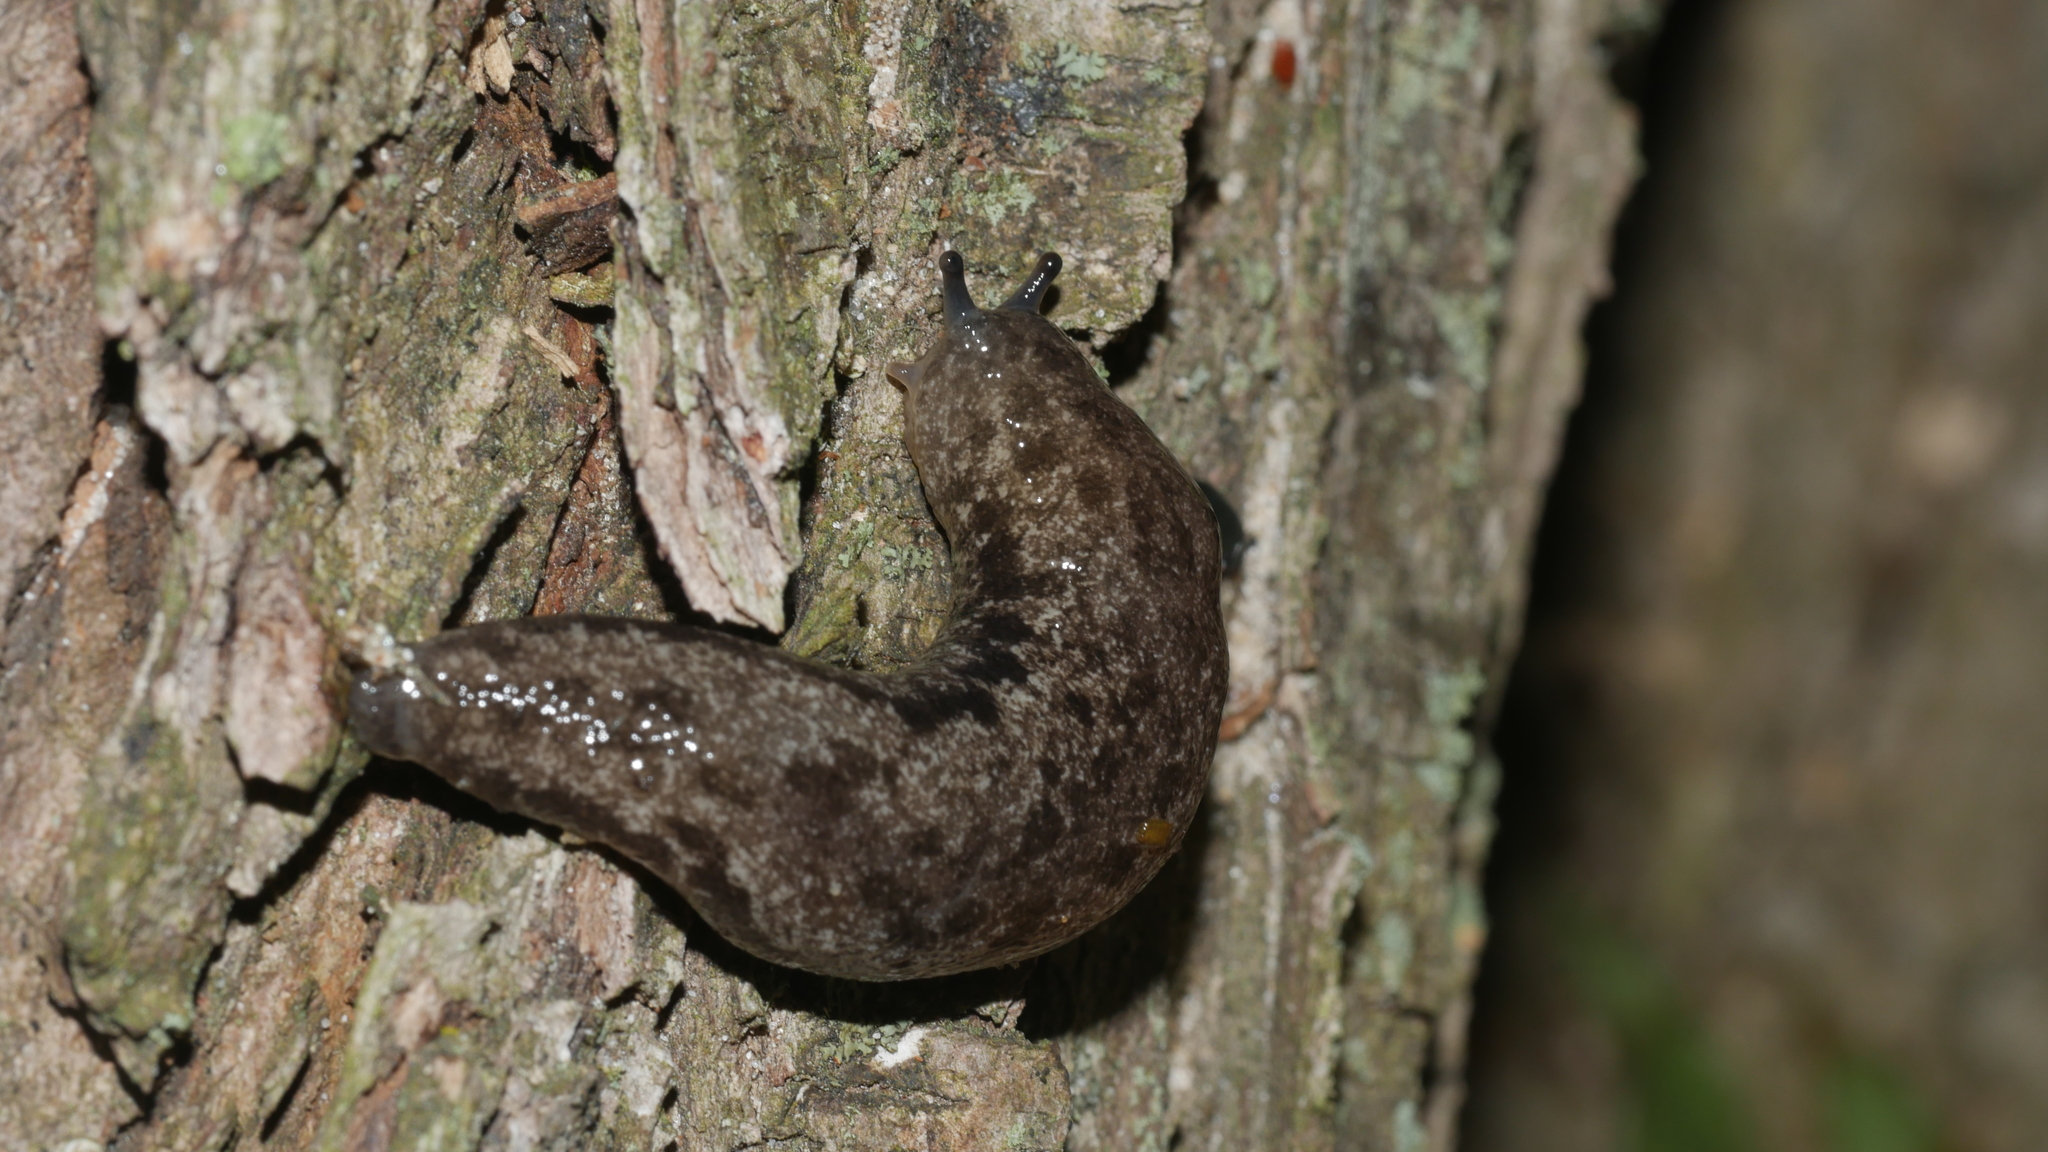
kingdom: Animalia
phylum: Mollusca
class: Gastropoda
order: Stylommatophora
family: Philomycidae
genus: Megapallifera
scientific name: Megapallifera mutabilis
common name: Changeable mantleslug
